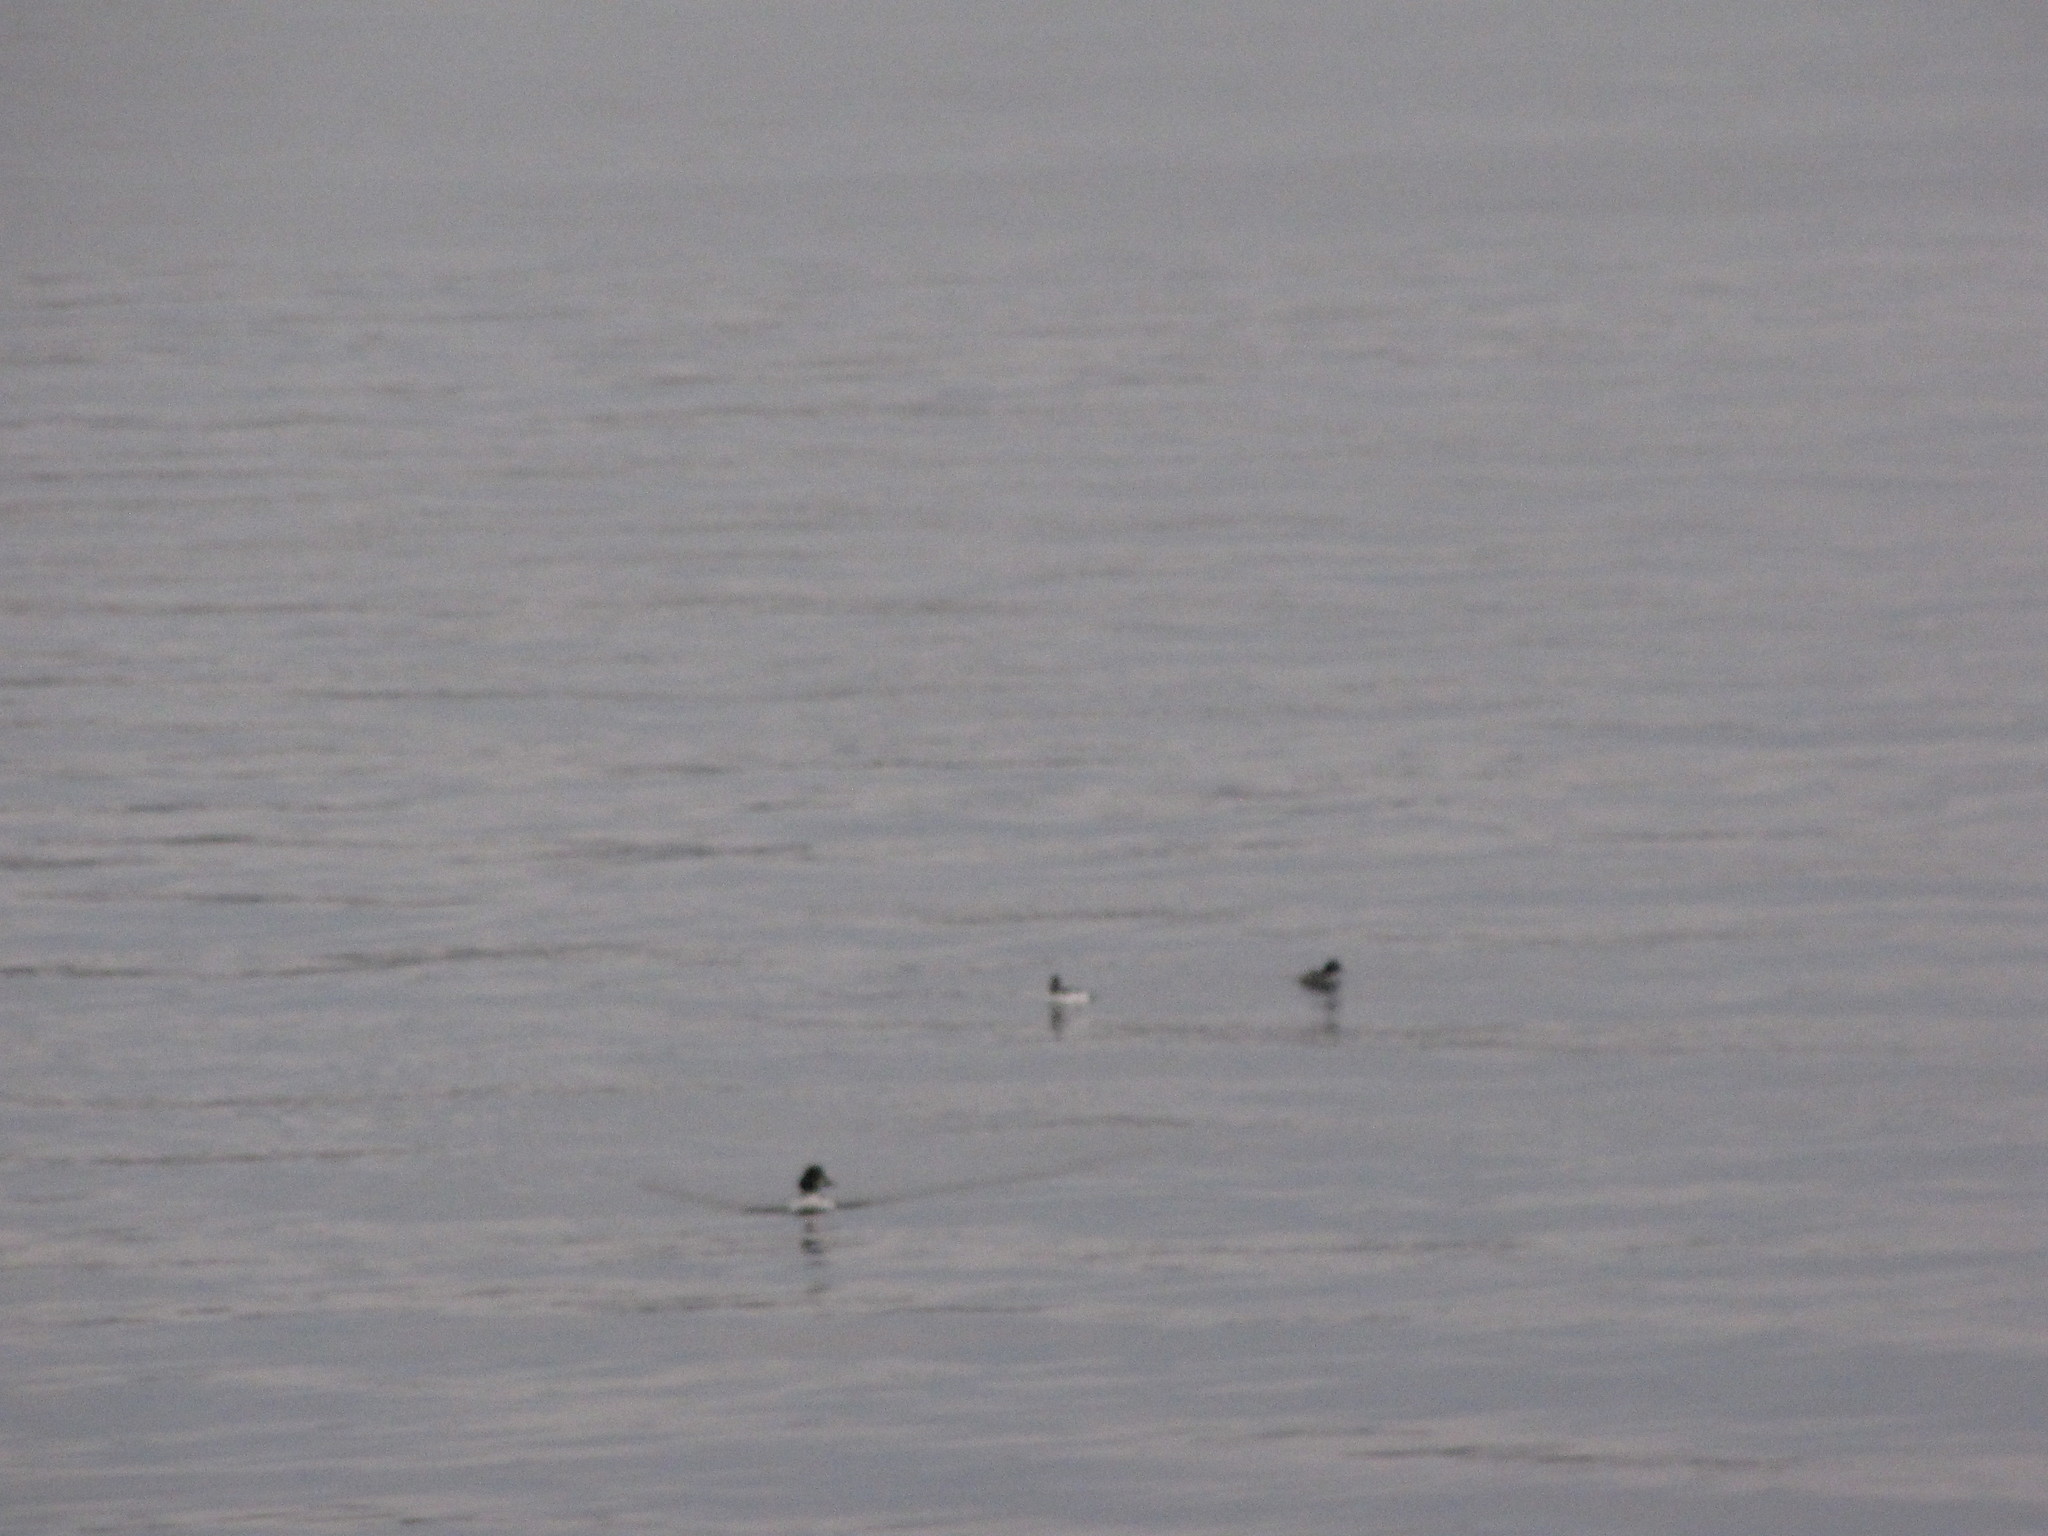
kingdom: Animalia
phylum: Chordata
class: Aves
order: Anseriformes
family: Anatidae
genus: Bucephala
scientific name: Bucephala clangula
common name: Common goldeneye
